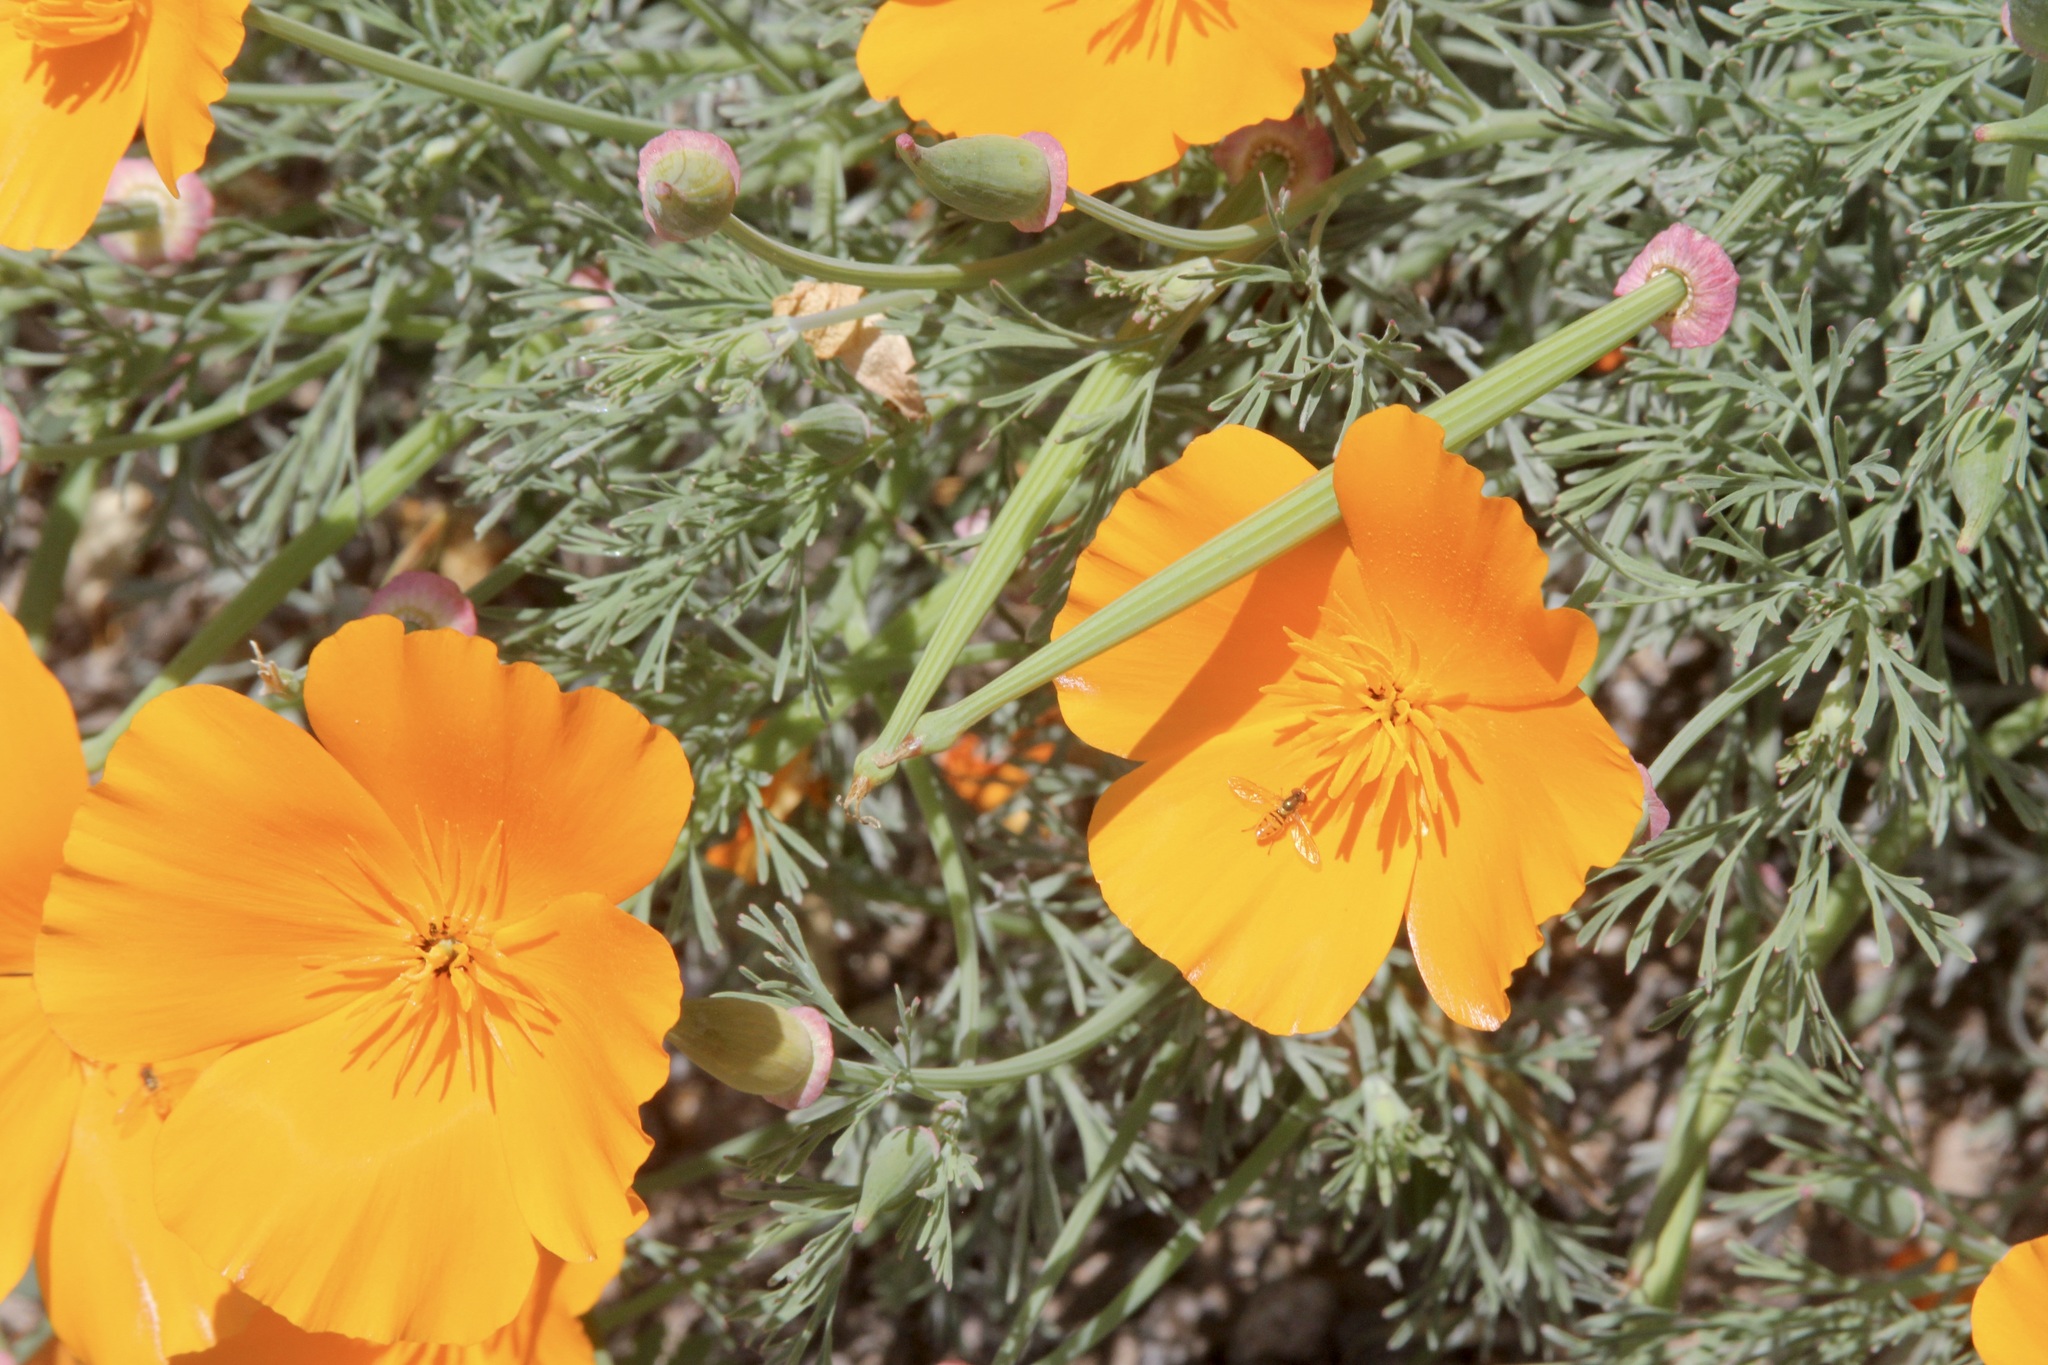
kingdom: Plantae
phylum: Tracheophyta
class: Magnoliopsida
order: Ranunculales
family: Papaveraceae
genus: Eschscholzia
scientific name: Eschscholzia californica
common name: California poppy
